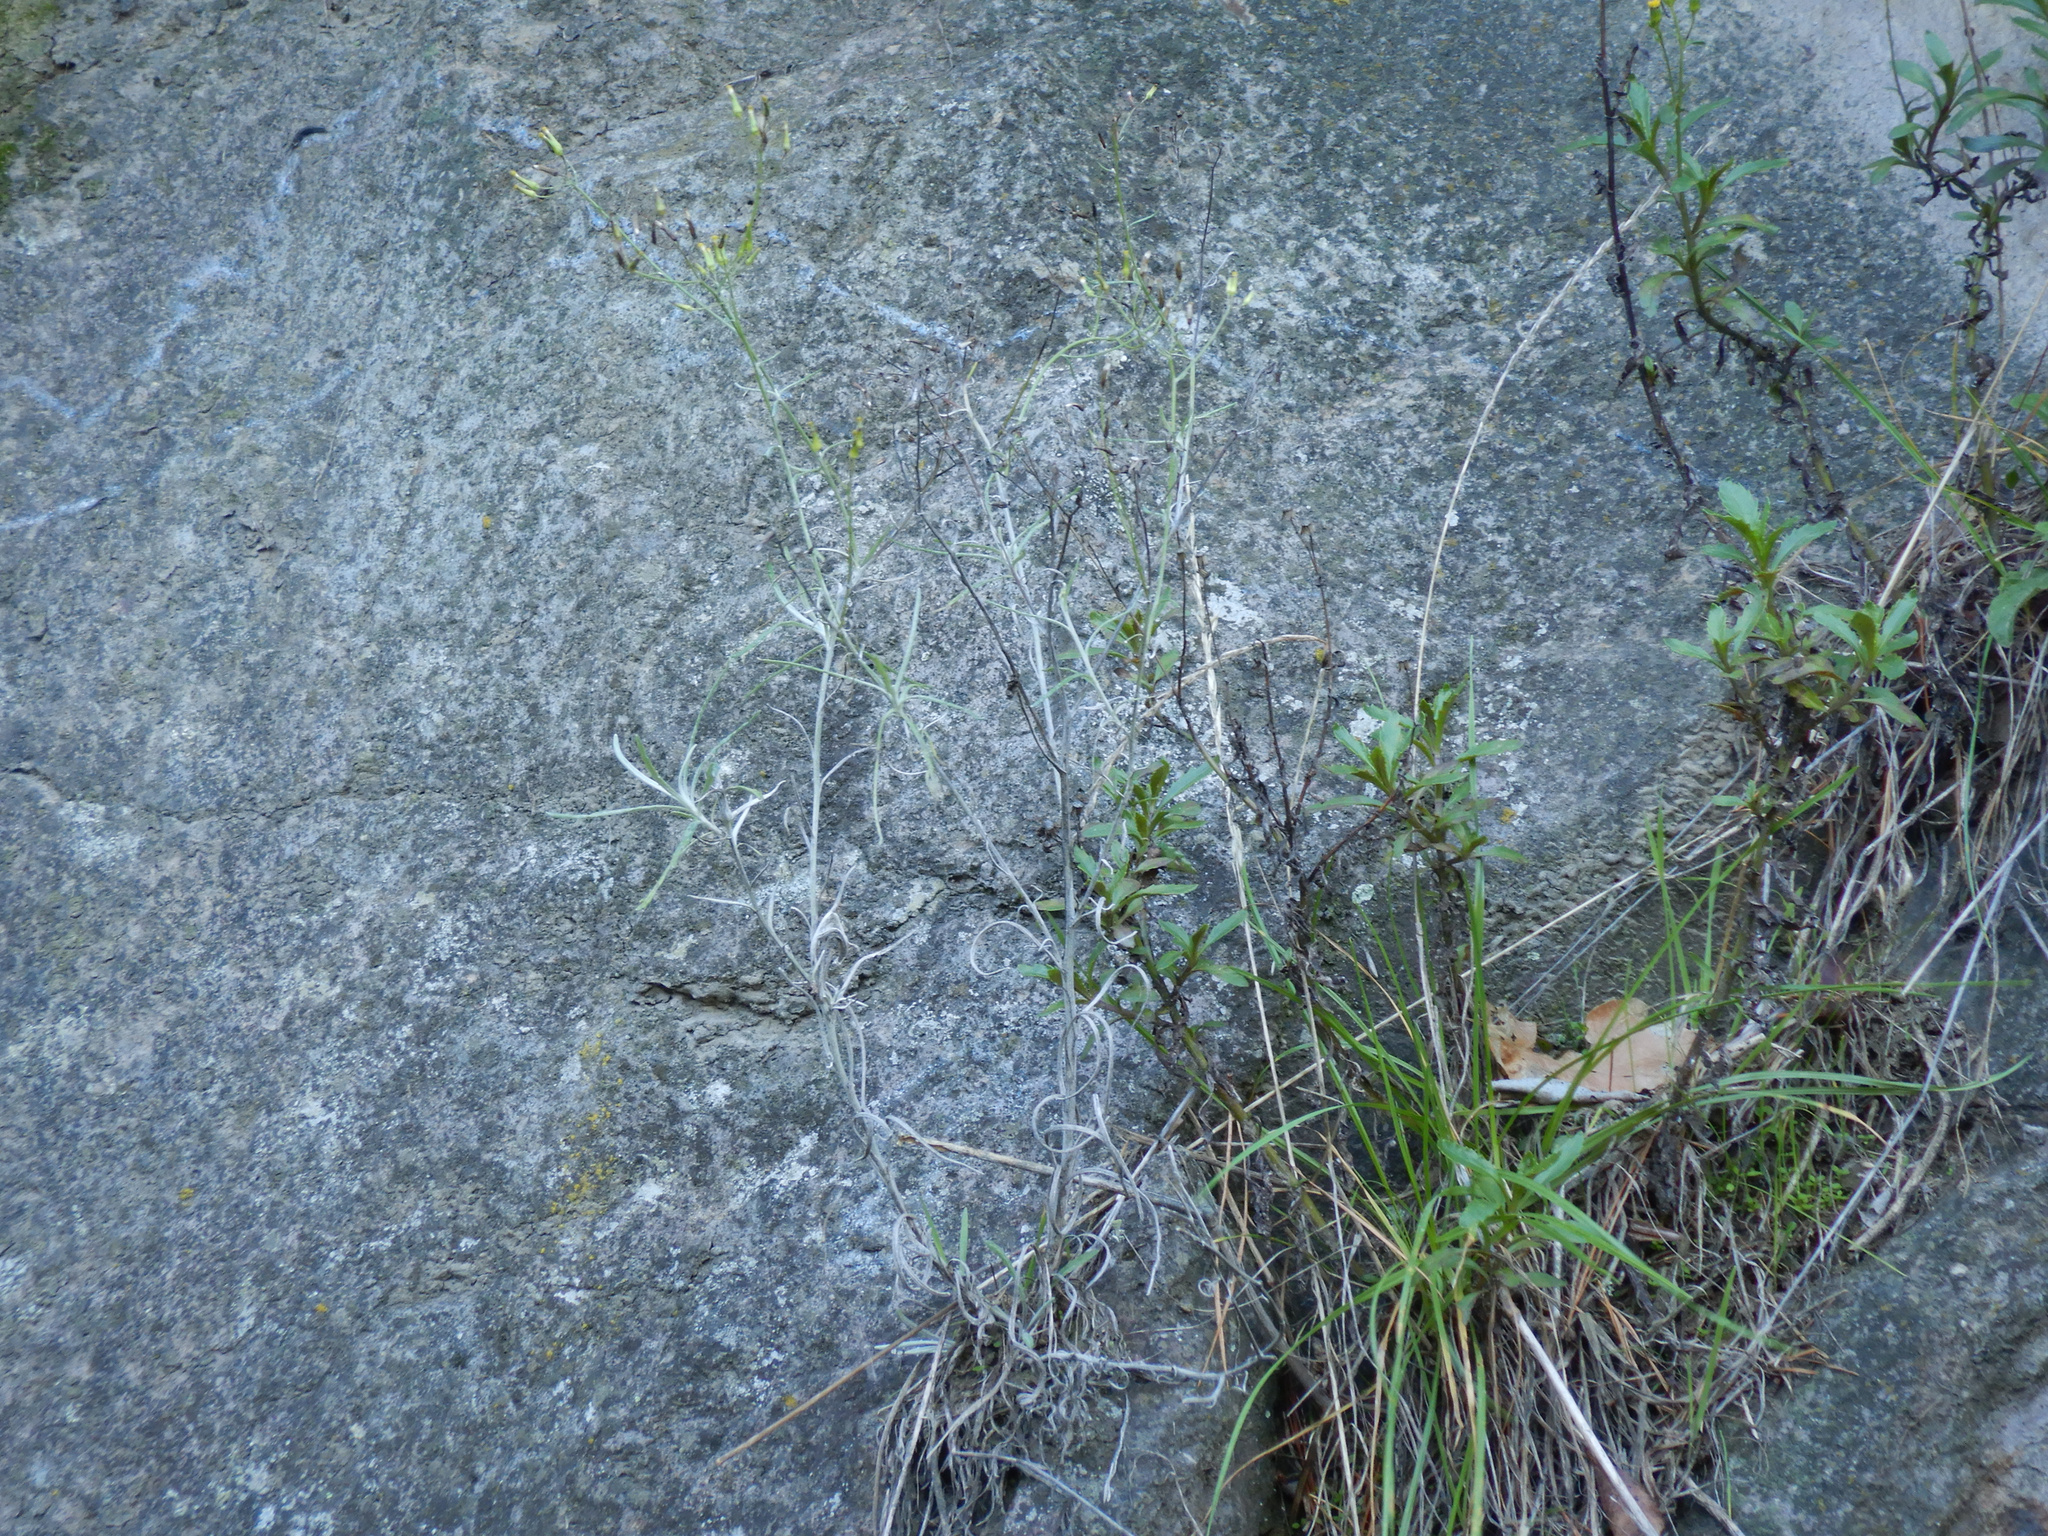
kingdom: Plantae
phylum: Tracheophyta
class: Magnoliopsida
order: Asterales
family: Asteraceae
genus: Senecio
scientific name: Senecio matatini
